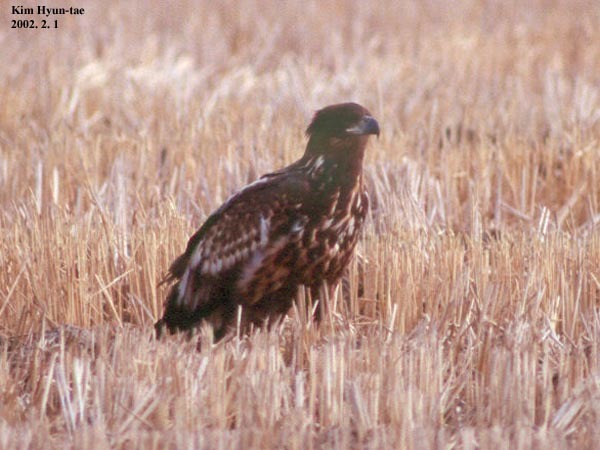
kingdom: Animalia
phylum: Chordata
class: Aves
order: Accipitriformes
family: Accipitridae
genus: Haliaeetus
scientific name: Haliaeetus albicilla
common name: White-tailed eagle
